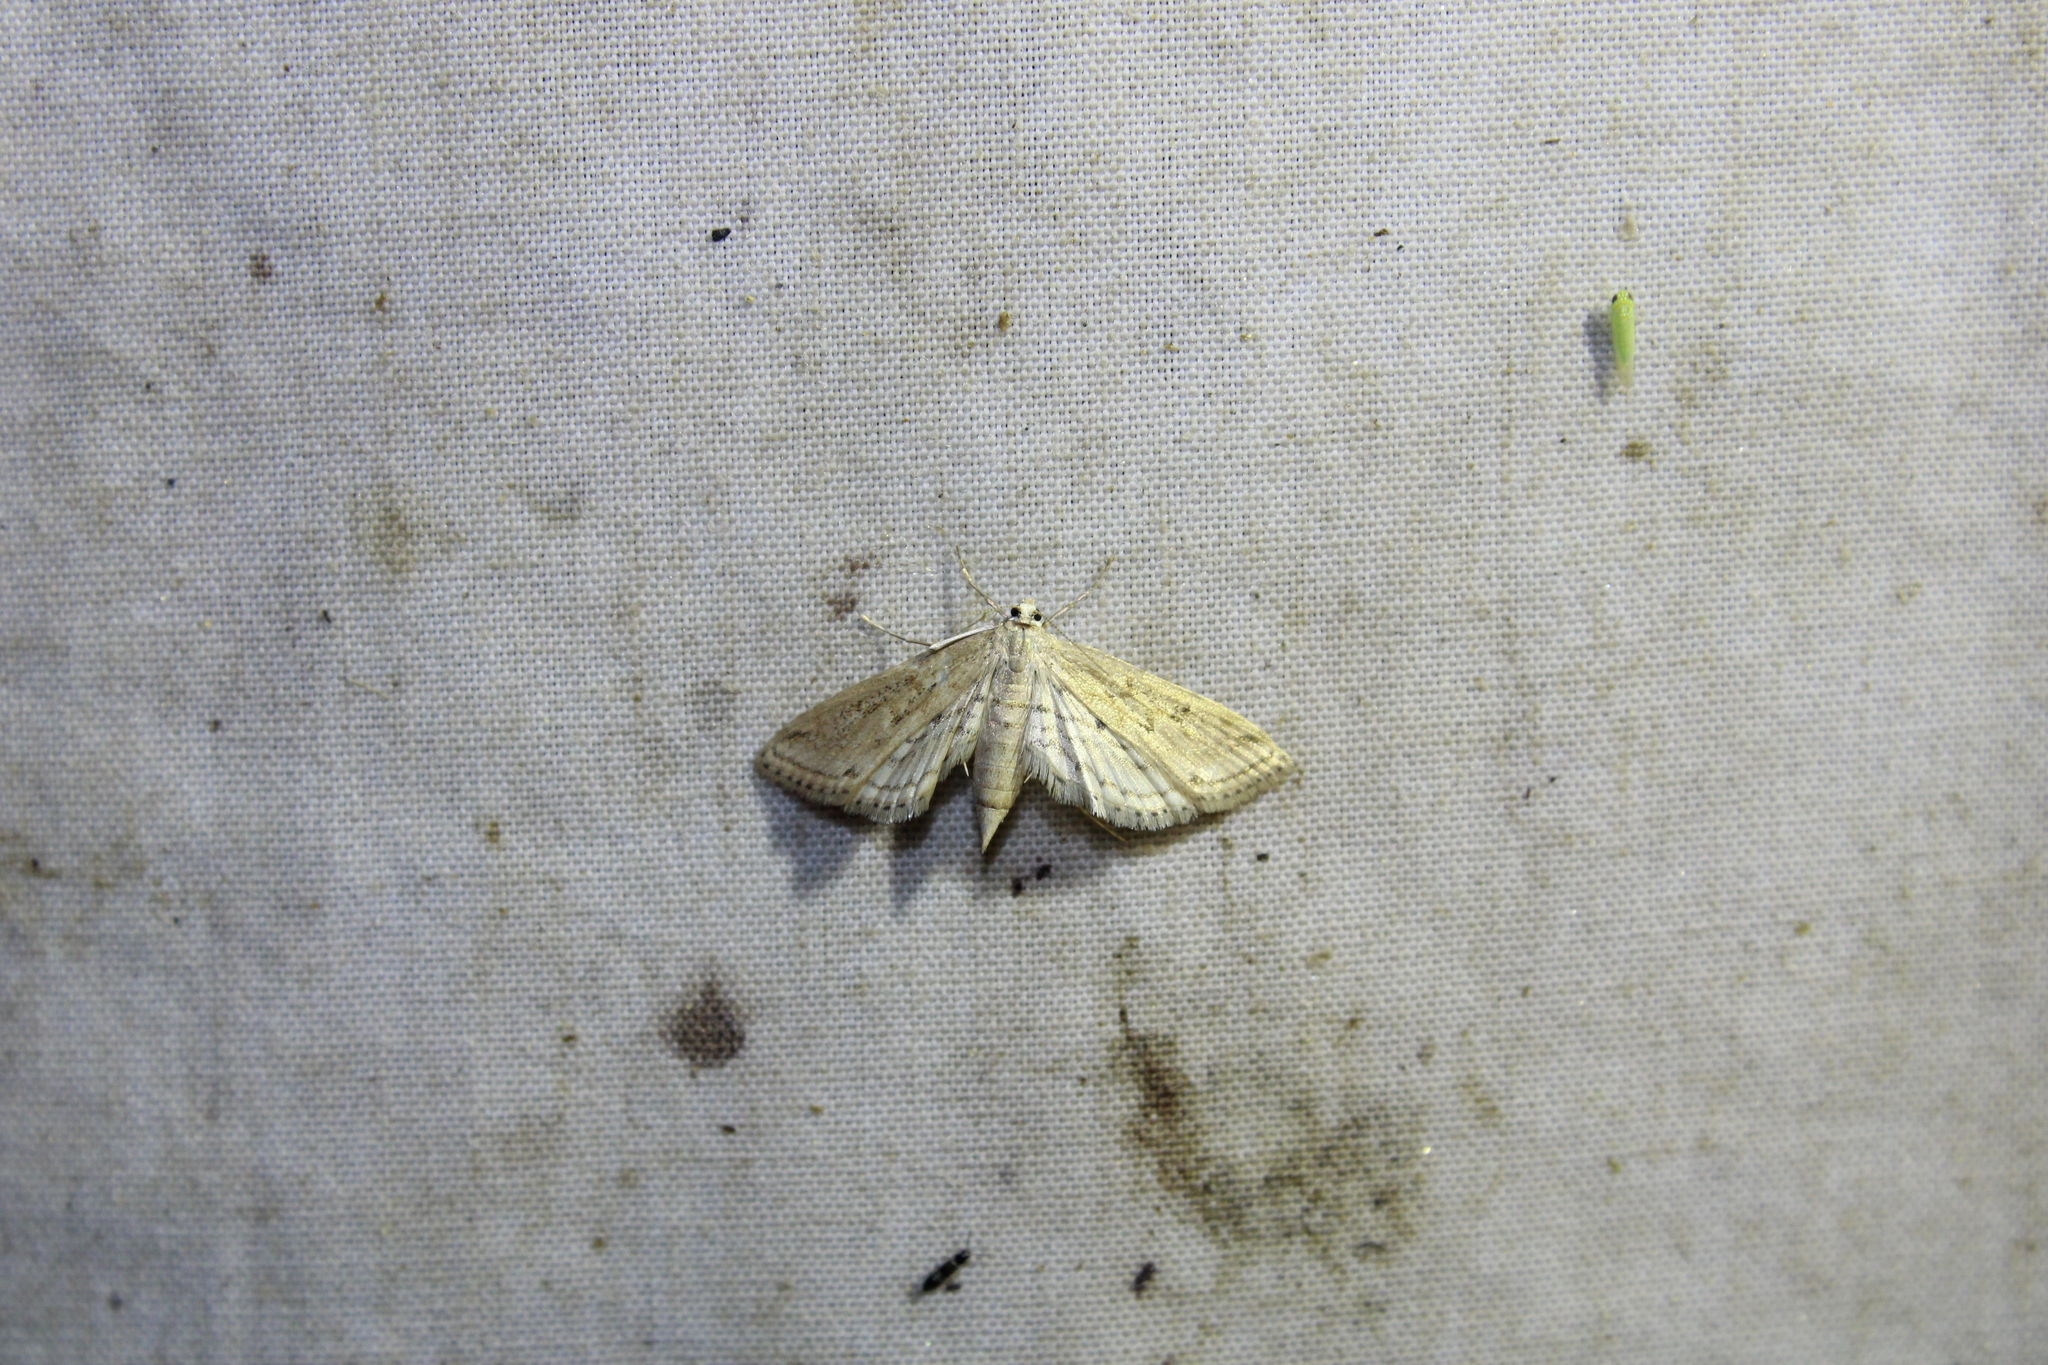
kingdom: Animalia
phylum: Arthropoda
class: Insecta
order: Lepidoptera
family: Crambidae
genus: Parapoynx
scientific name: Parapoynx allionealis
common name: Bladderwort casemaker
